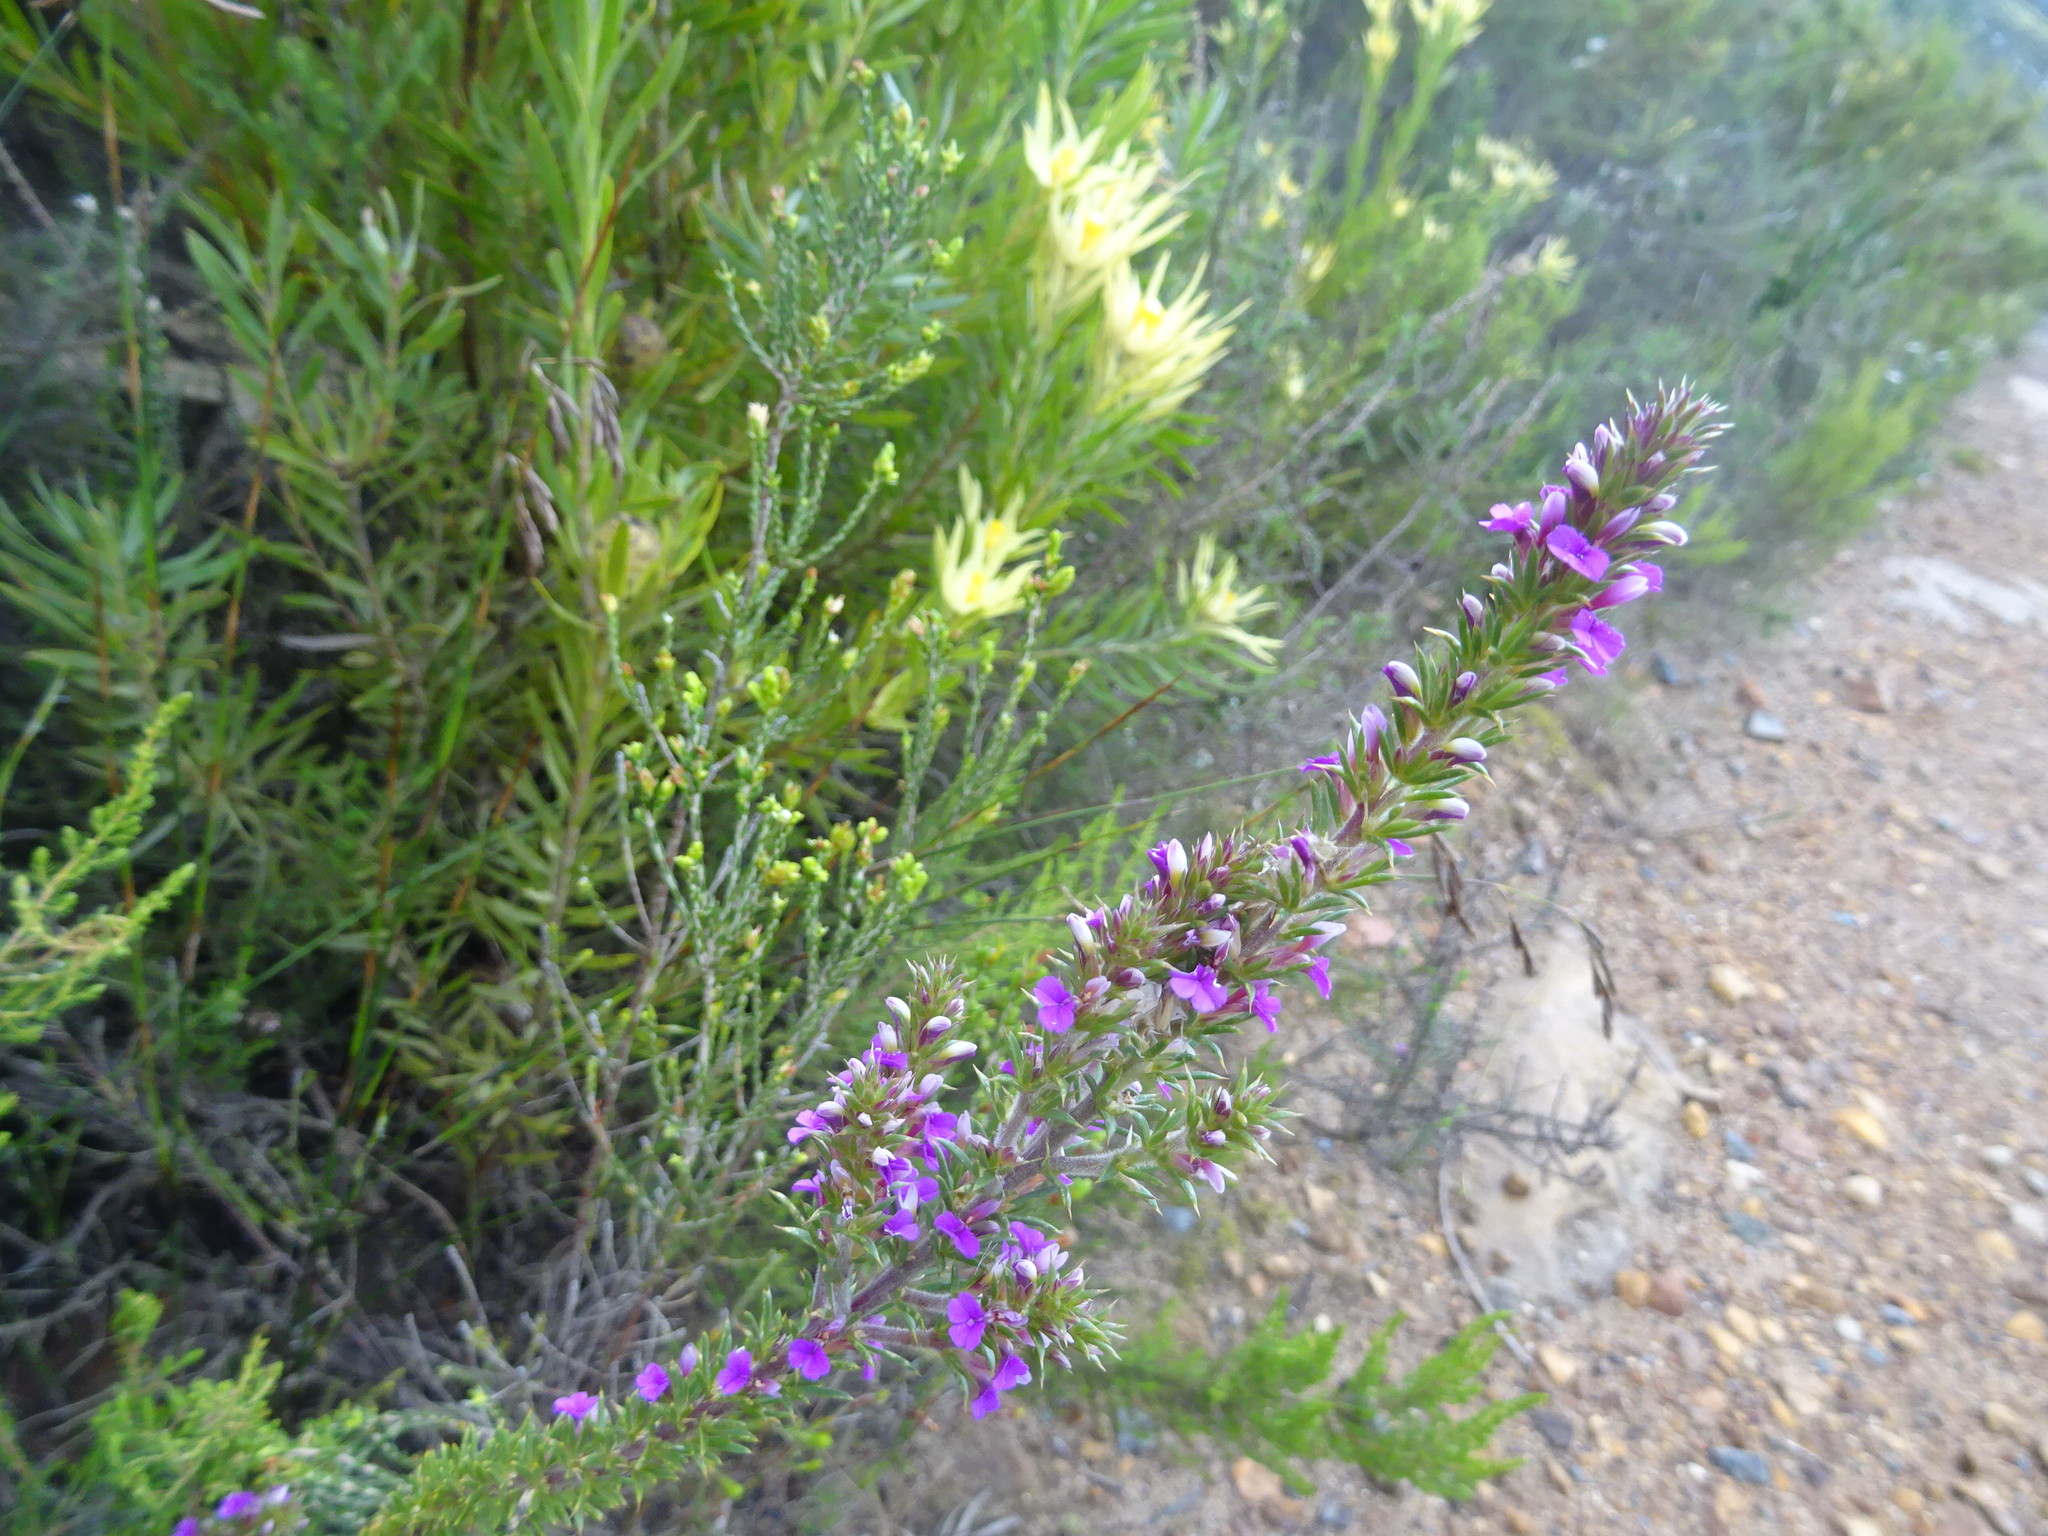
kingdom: Plantae
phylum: Tracheophyta
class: Magnoliopsida
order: Fabales
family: Polygalaceae
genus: Muraltia
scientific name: Muraltia heisteria
